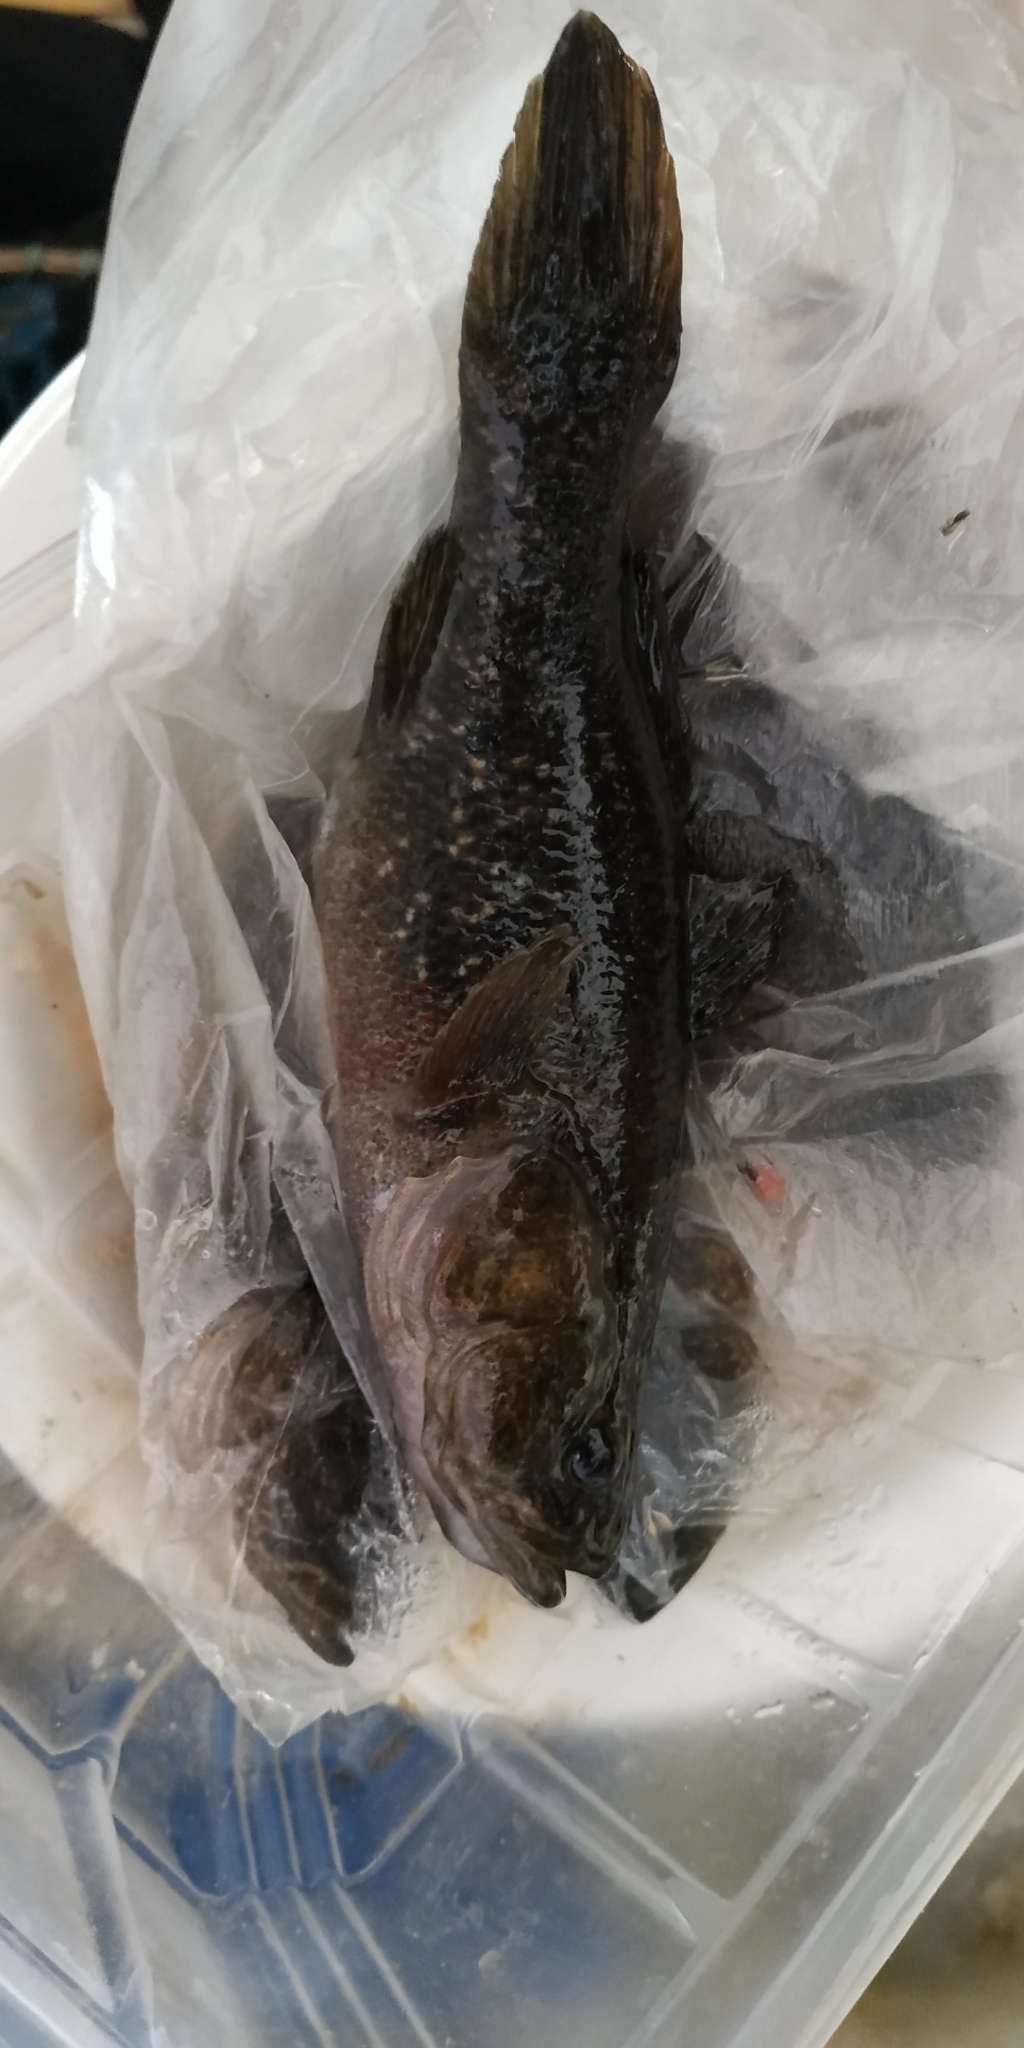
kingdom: Animalia
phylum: Chordata
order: Perciformes
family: Odontobutidae
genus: Perccottus
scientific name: Perccottus glenii
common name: Amur sleeper
